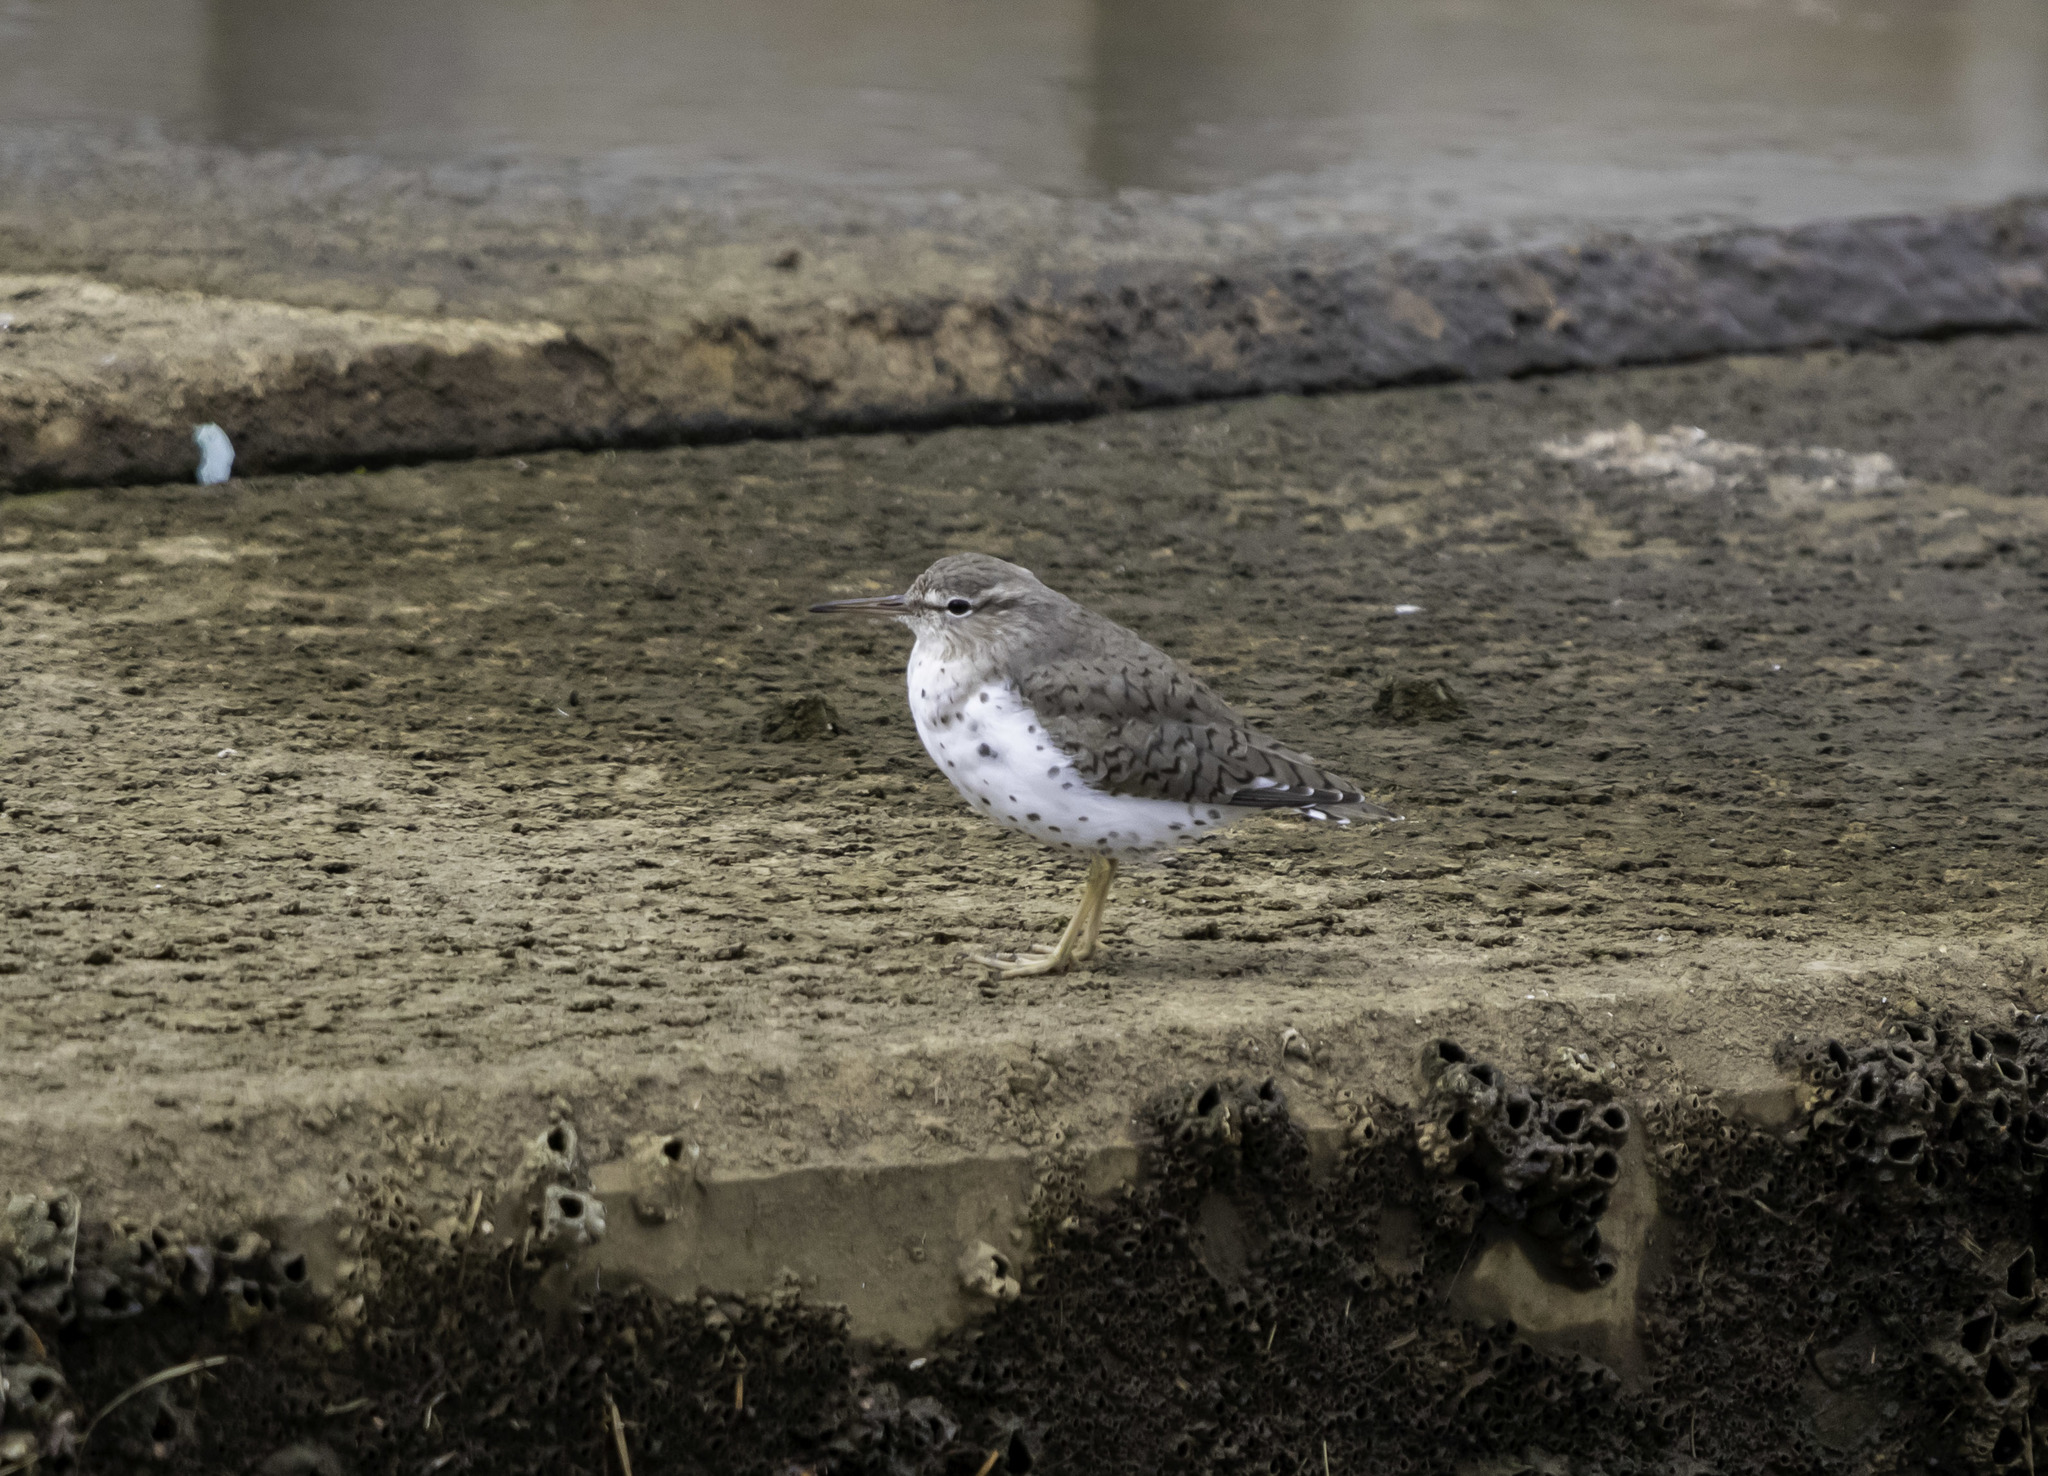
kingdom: Animalia
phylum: Chordata
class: Aves
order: Charadriiformes
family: Scolopacidae
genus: Actitis
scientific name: Actitis macularius
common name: Spotted sandpiper
